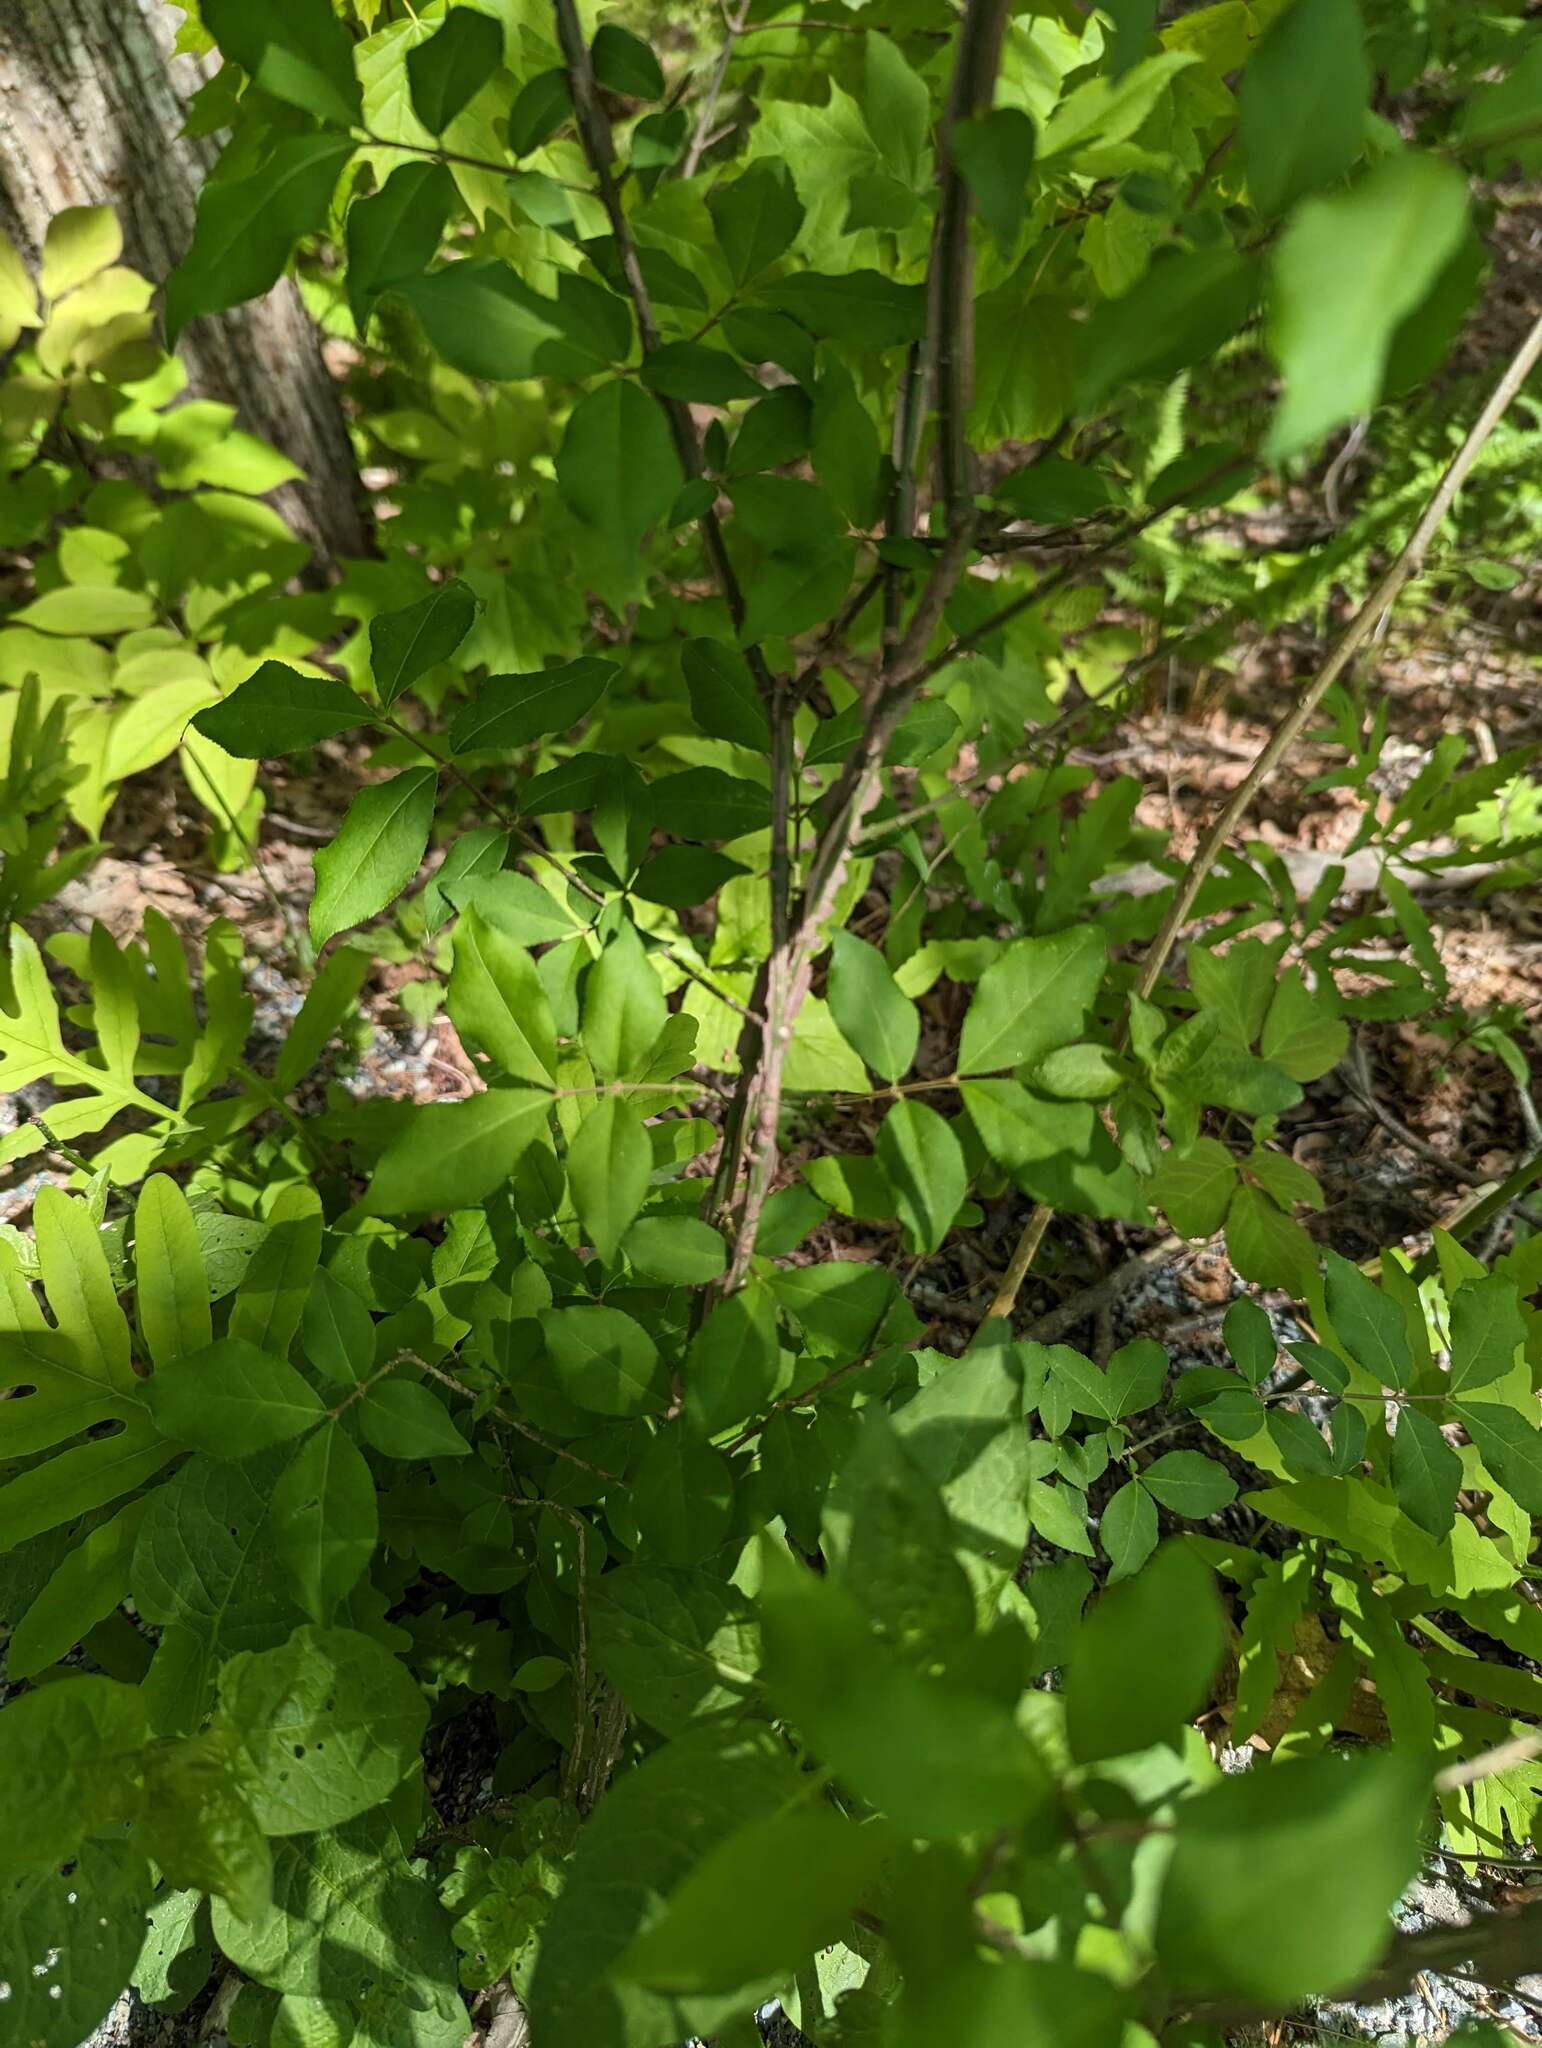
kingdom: Plantae
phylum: Tracheophyta
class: Magnoliopsida
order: Celastrales
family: Celastraceae
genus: Euonymus
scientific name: Euonymus alatus
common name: Winged euonymus
